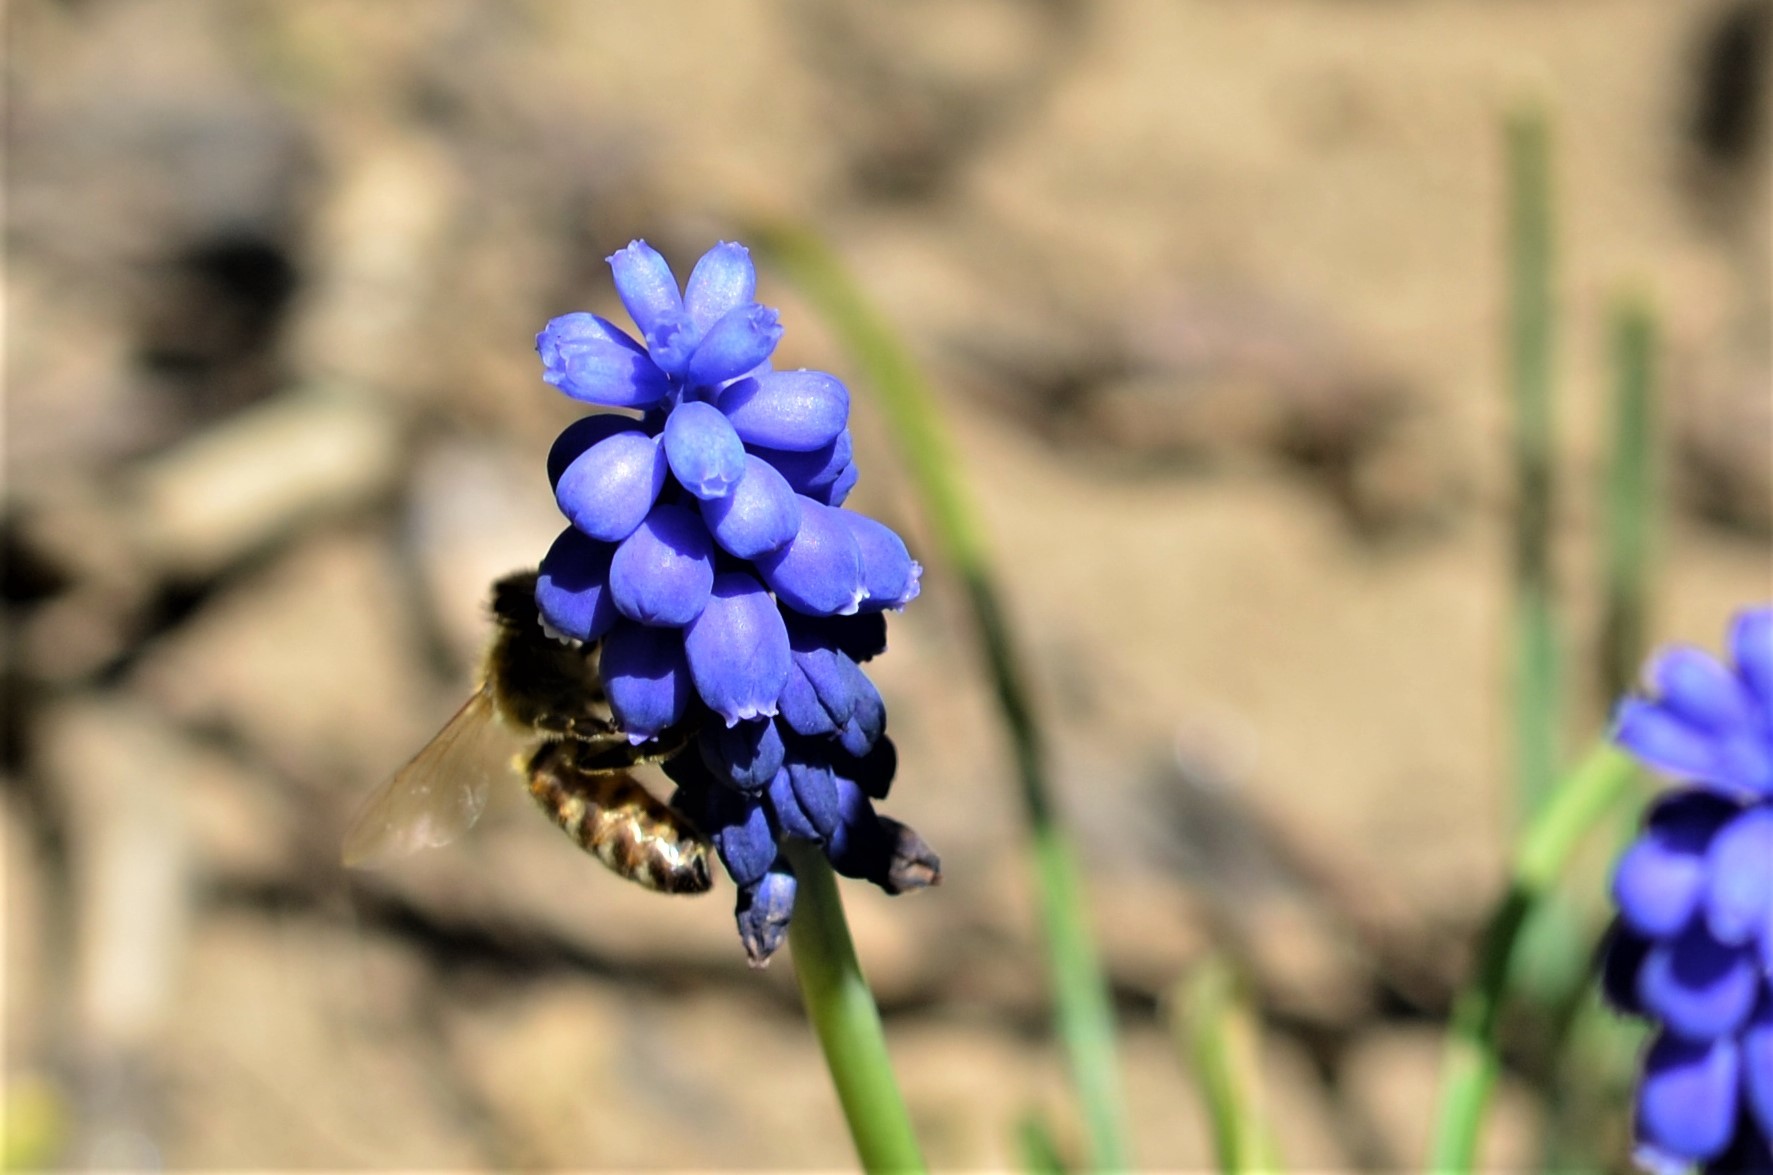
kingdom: Animalia
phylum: Arthropoda
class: Insecta
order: Hymenoptera
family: Apidae
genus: Apis
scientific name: Apis mellifera
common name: Honey bee
